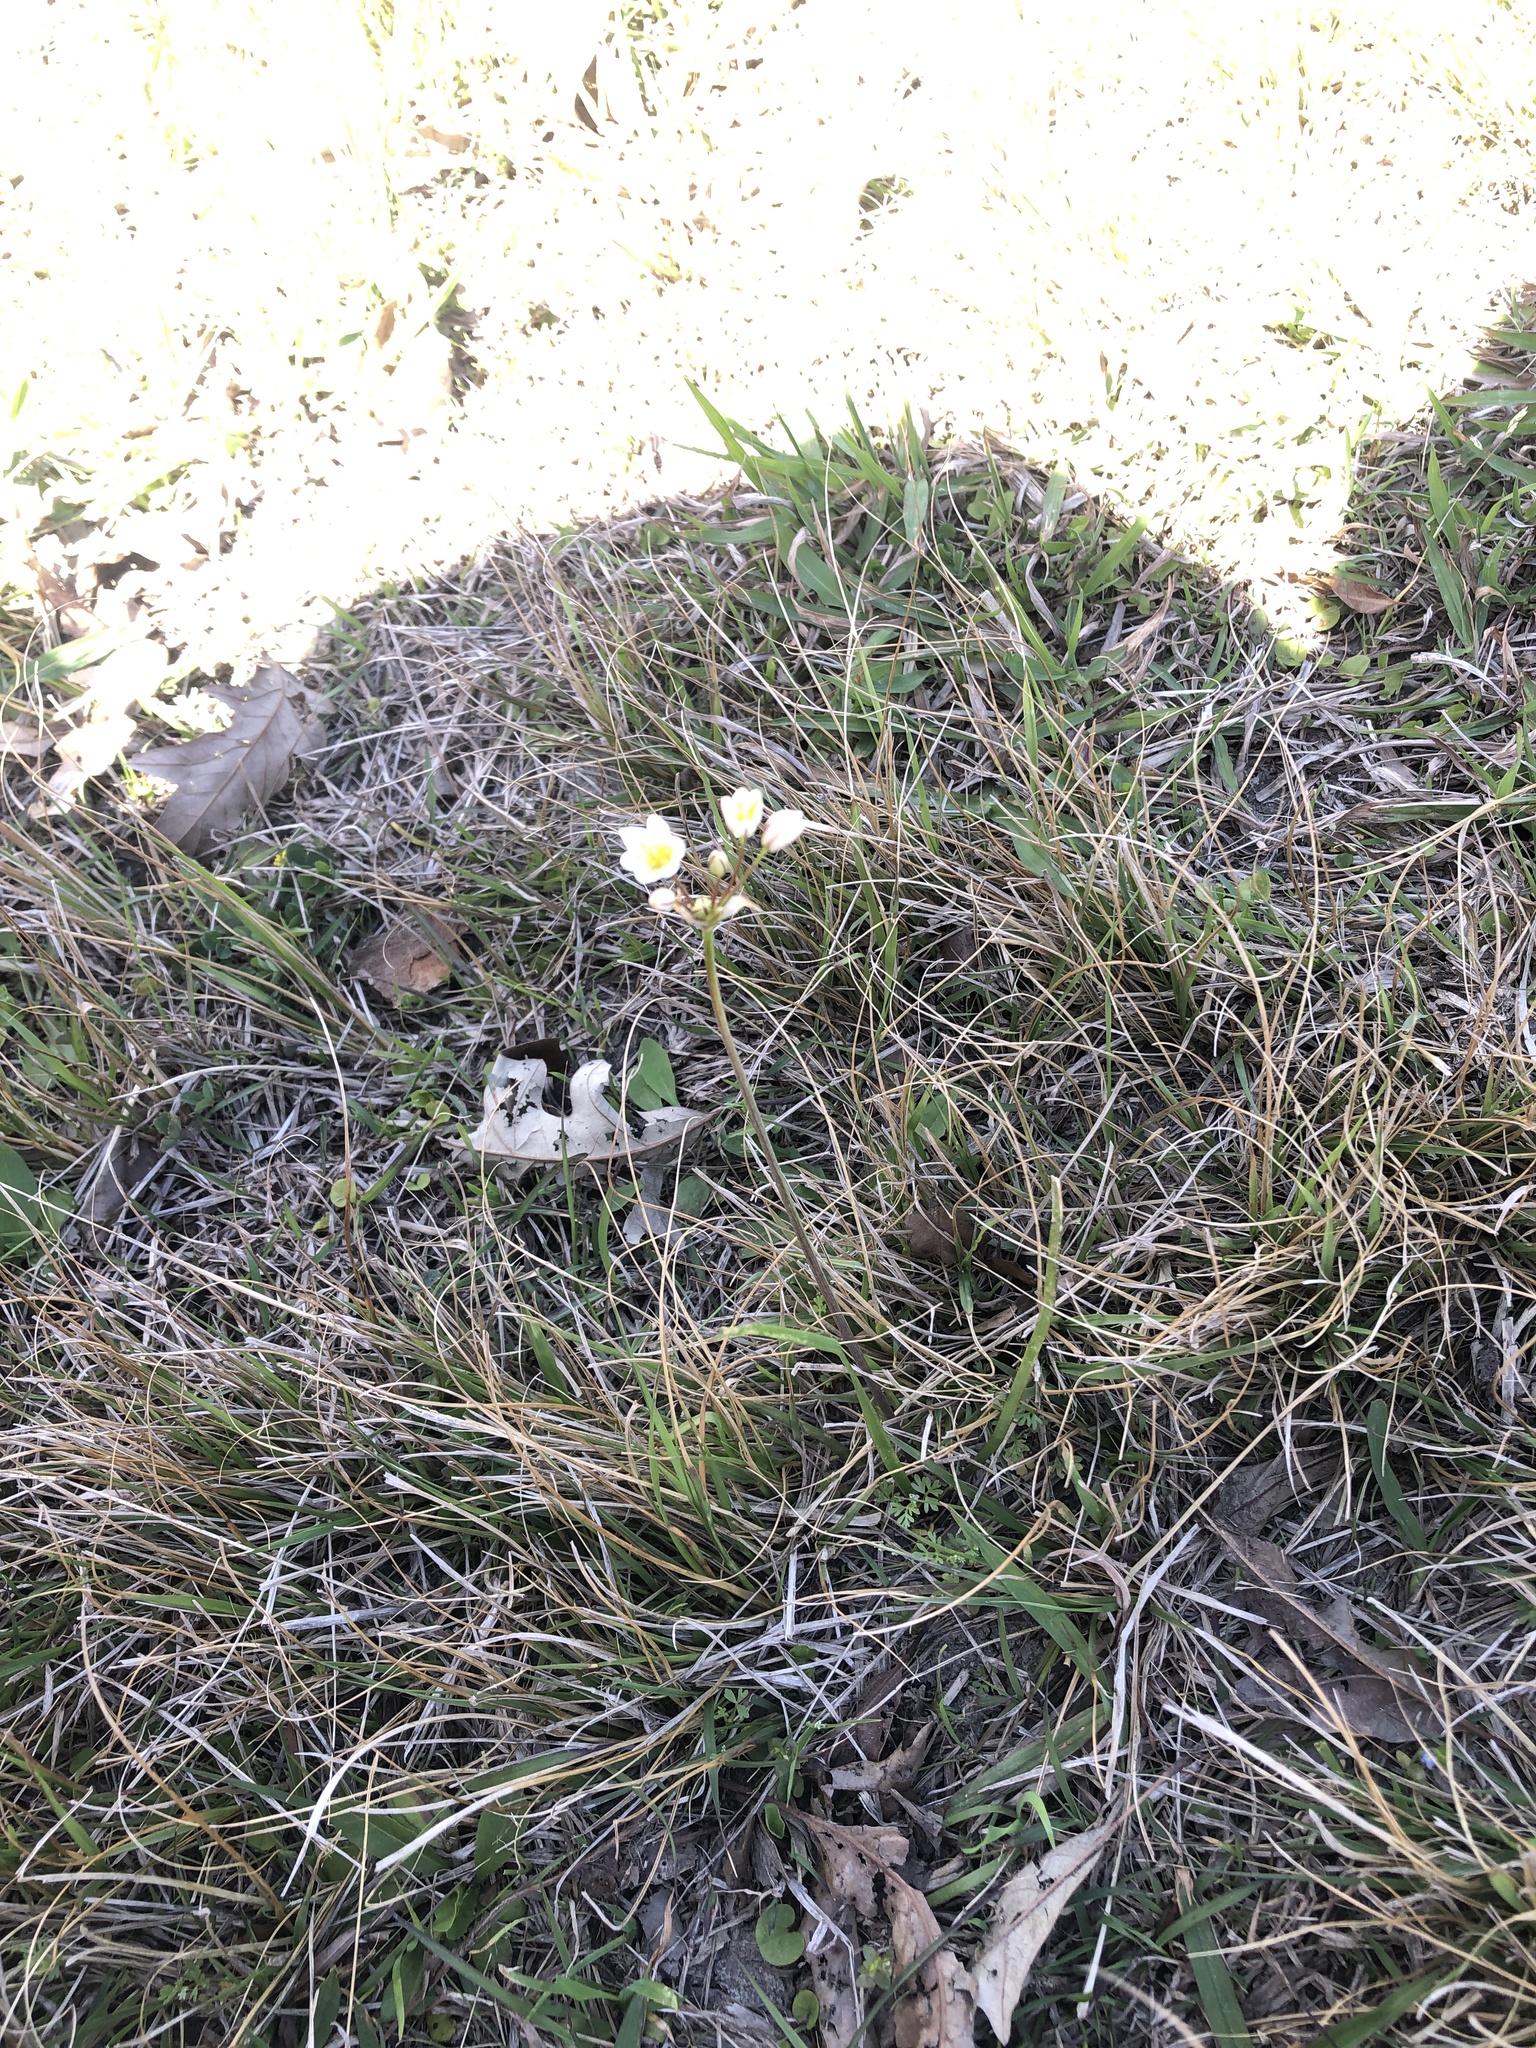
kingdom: Plantae
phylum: Tracheophyta
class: Liliopsida
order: Asparagales
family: Amaryllidaceae
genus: Nothoscordum
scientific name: Nothoscordum bivalve
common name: Crow-poison
